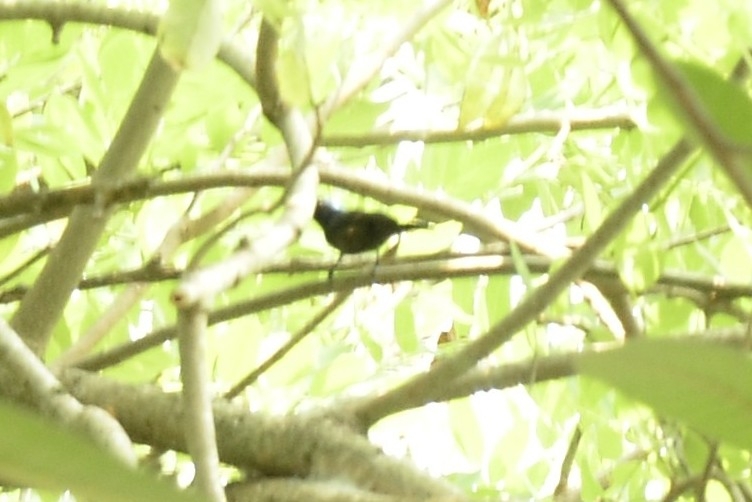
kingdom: Animalia
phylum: Chordata
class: Aves
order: Passeriformes
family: Nectariniidae
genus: Cinnyris
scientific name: Cinnyris lotenius
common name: Loten's sunbird
